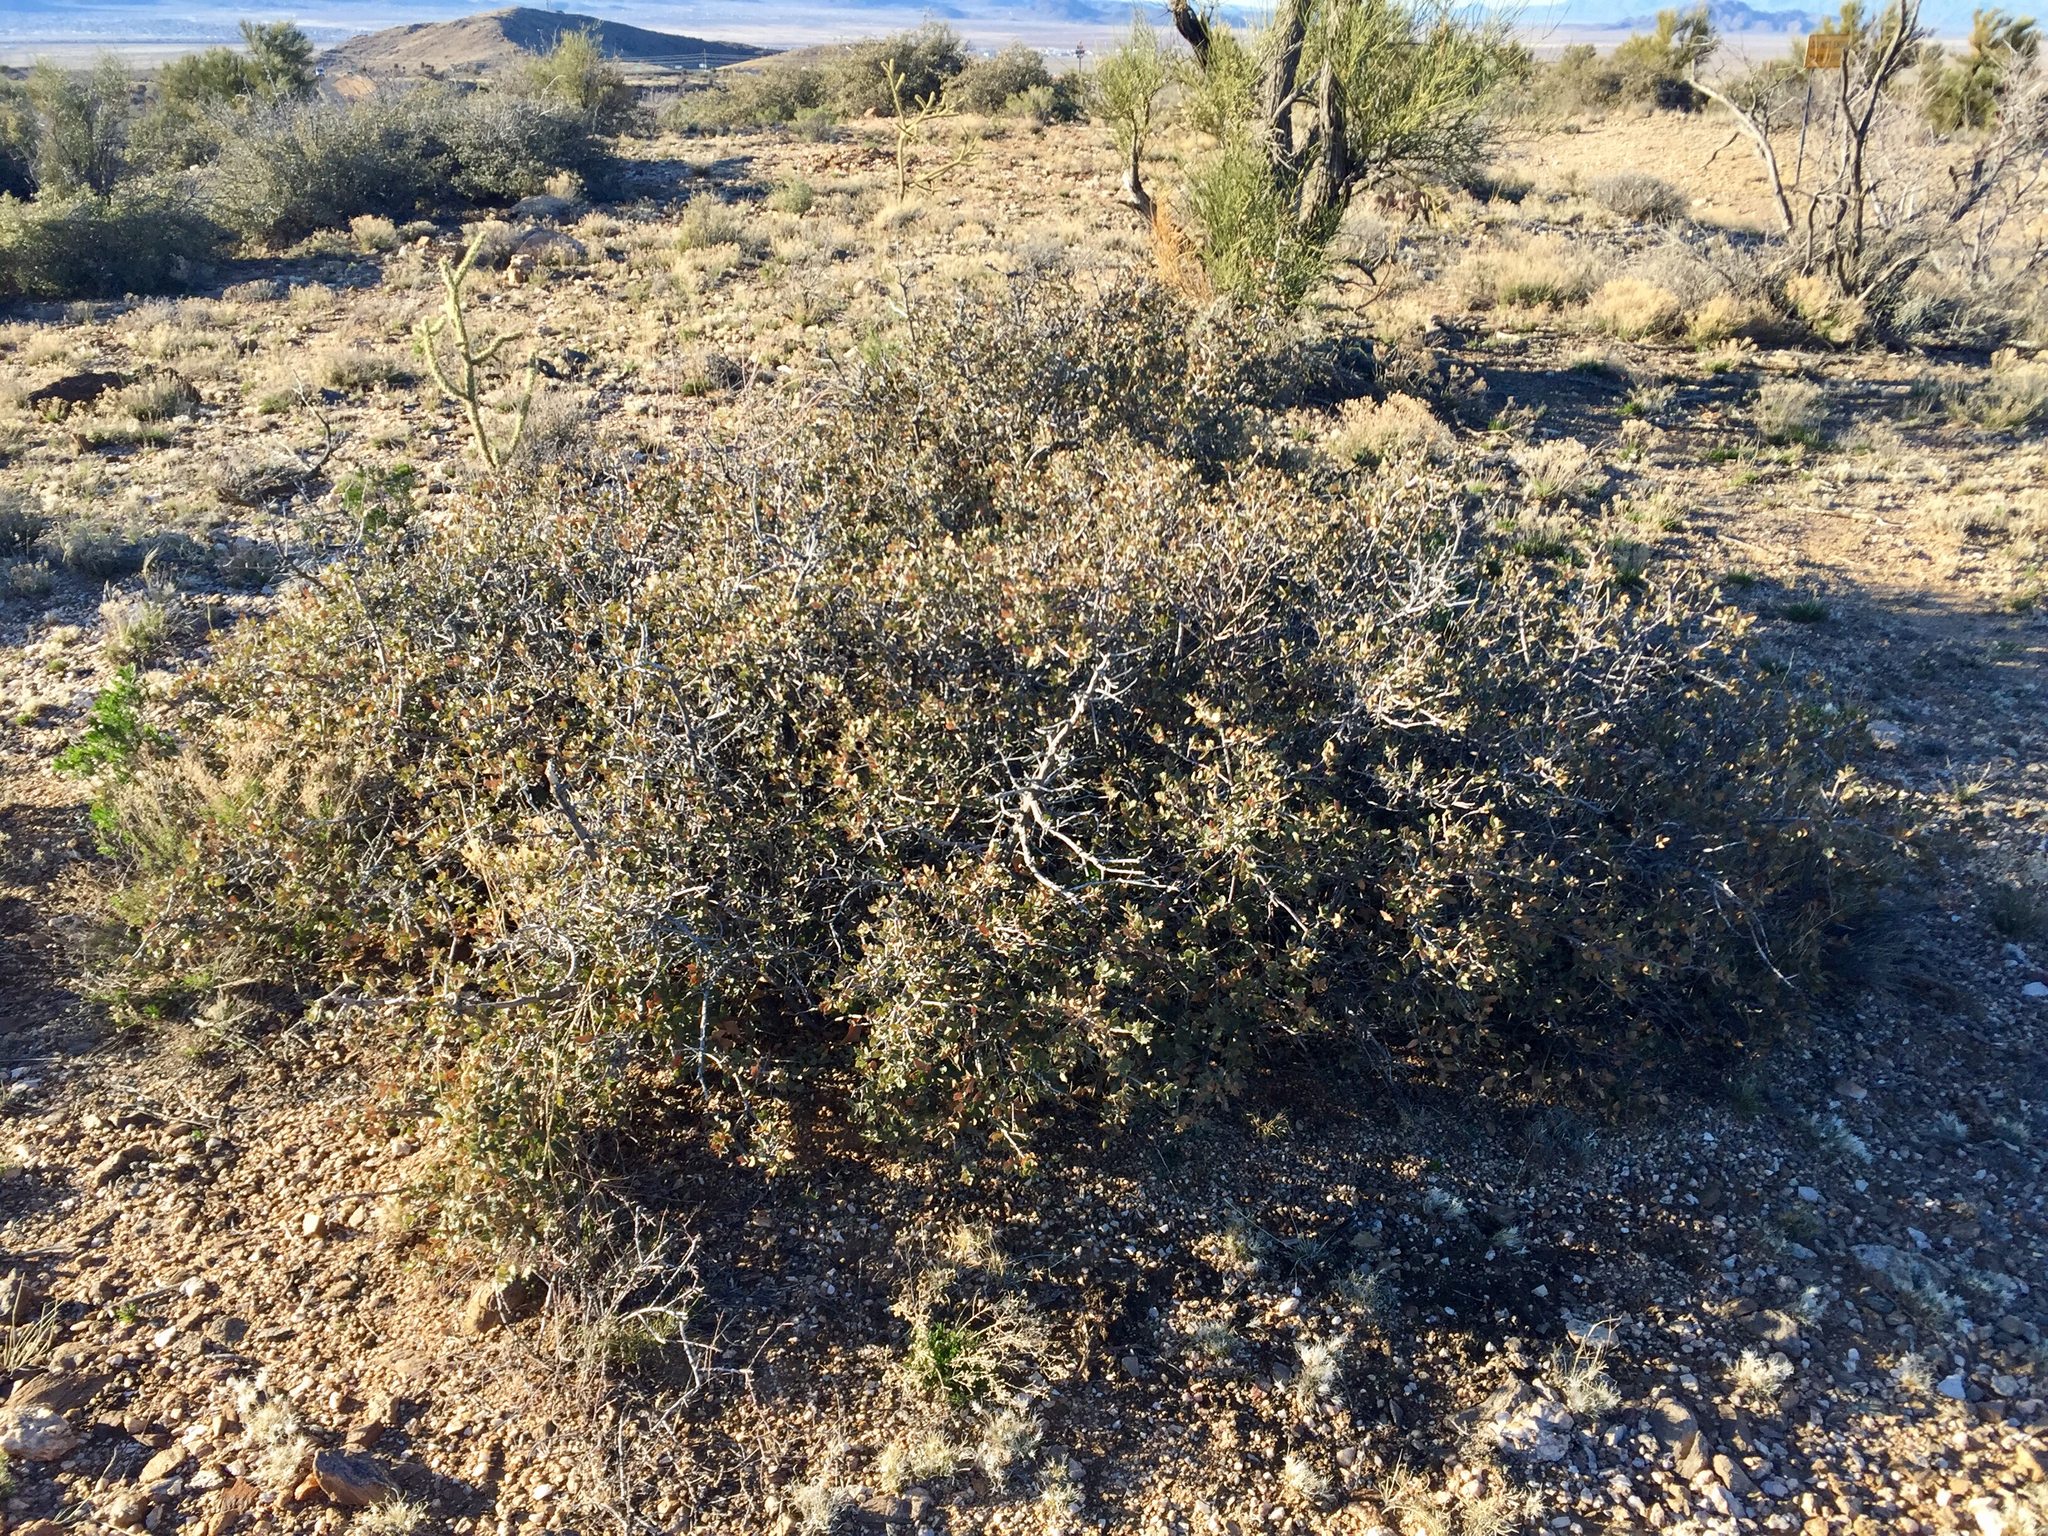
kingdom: Plantae
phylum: Tracheophyta
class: Magnoliopsida
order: Fagales
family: Fagaceae
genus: Quercus
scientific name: Quercus turbinella
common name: Sonoran scrub oak
